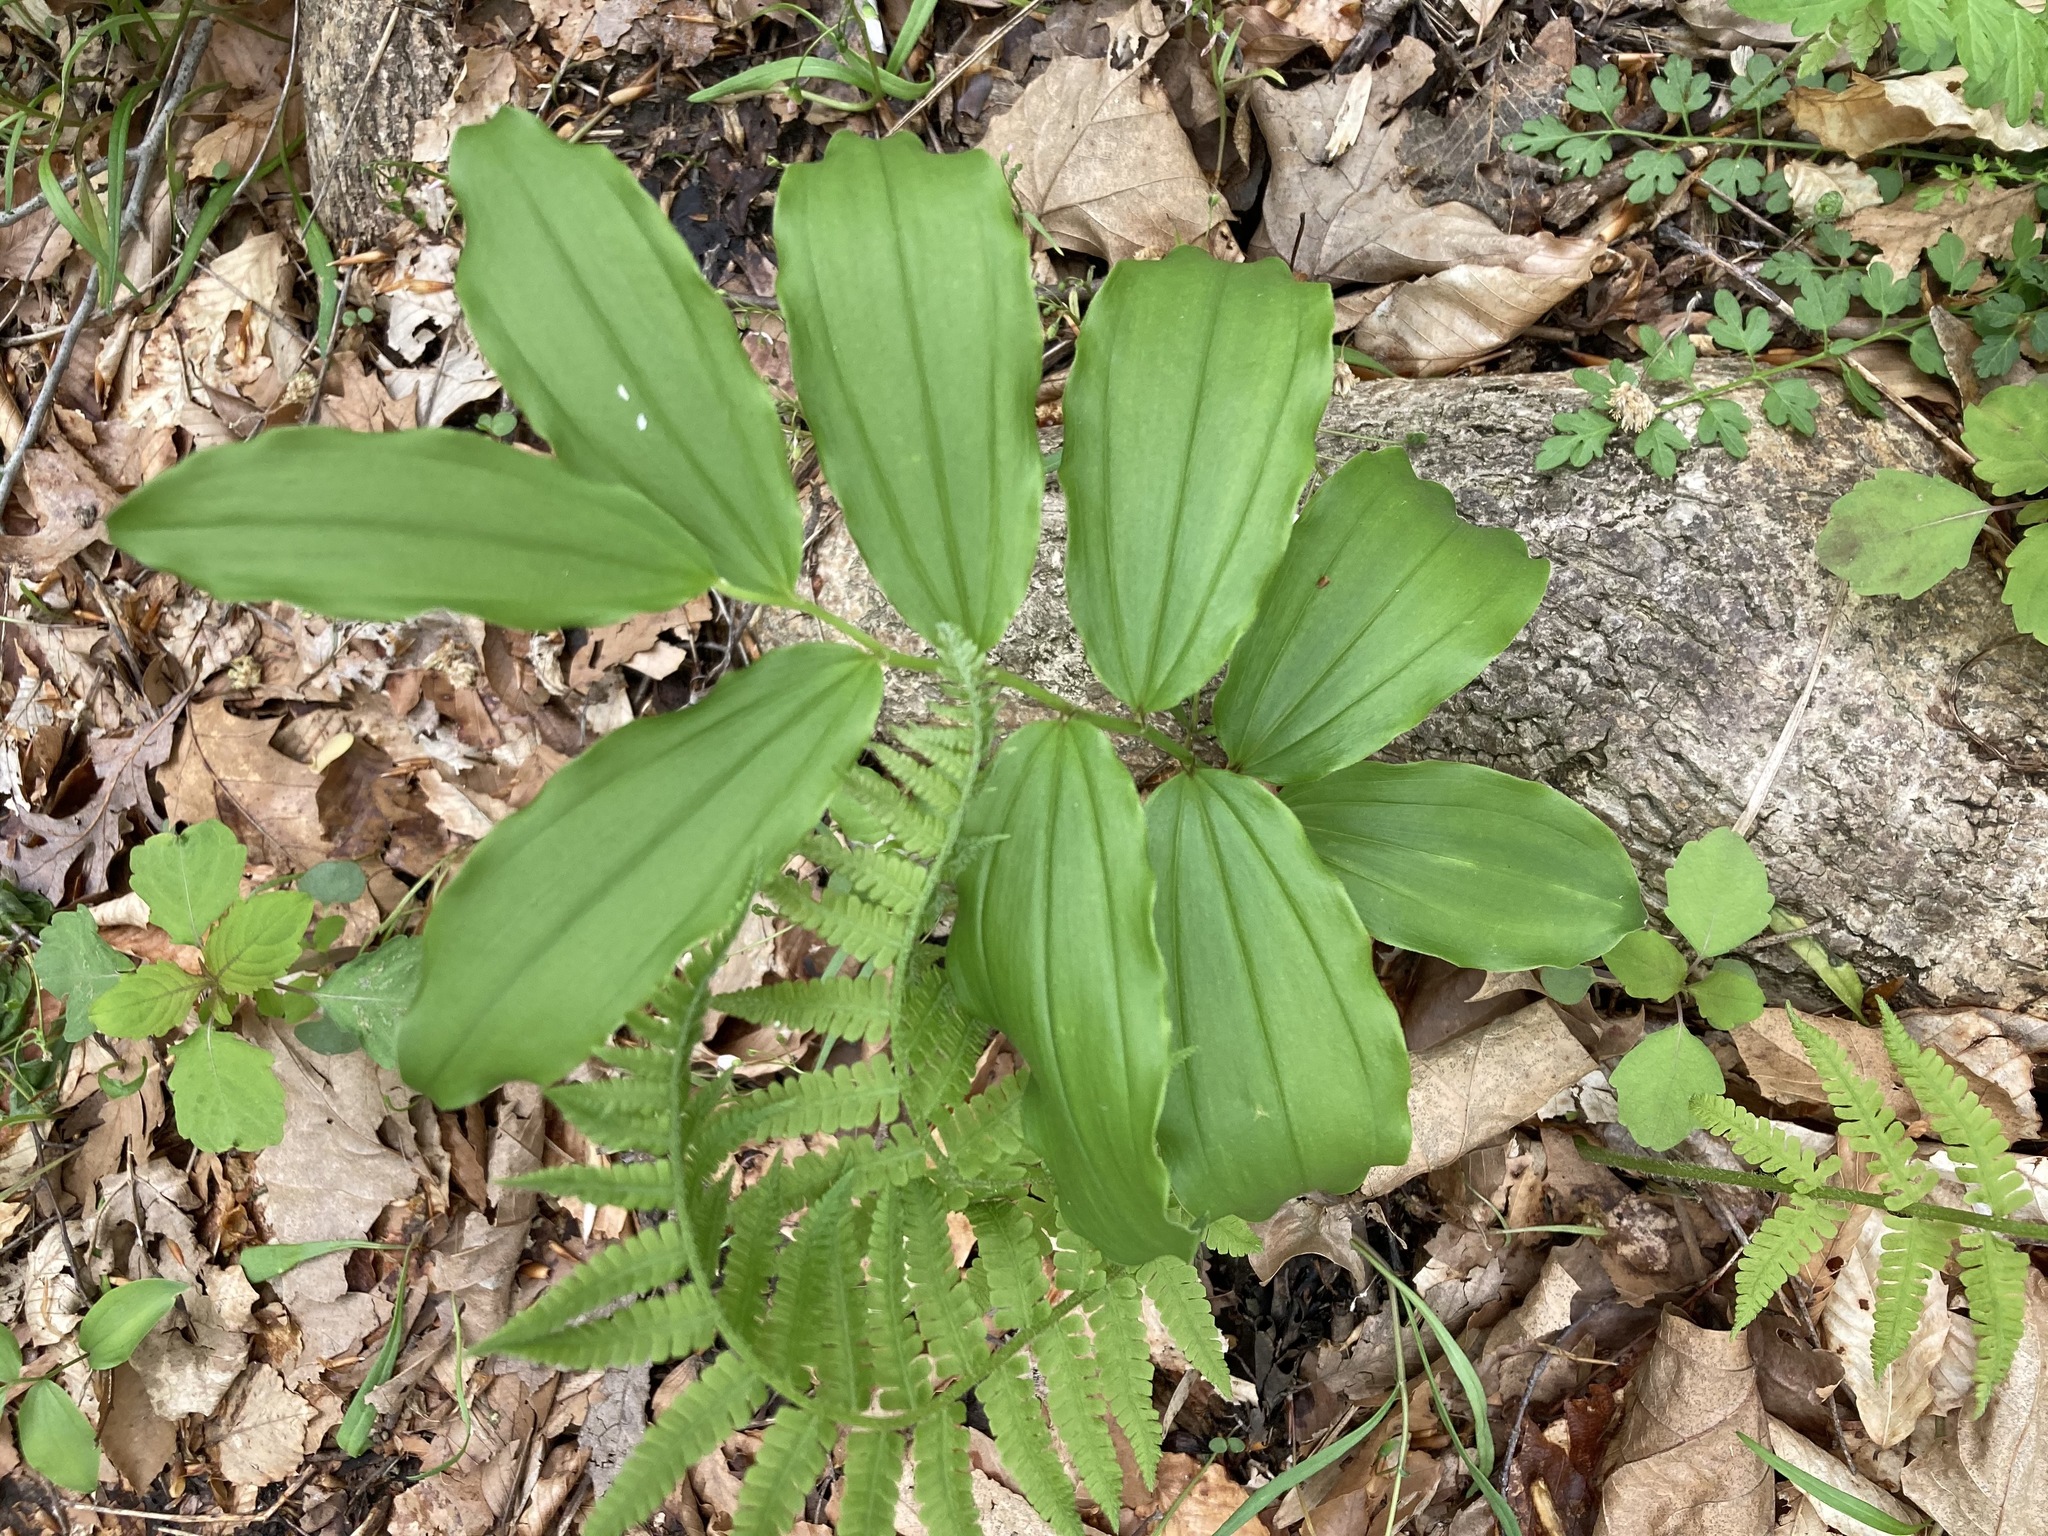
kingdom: Plantae
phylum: Tracheophyta
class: Liliopsida
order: Asparagales
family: Asparagaceae
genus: Maianthemum
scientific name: Maianthemum racemosum
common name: False spikenard
